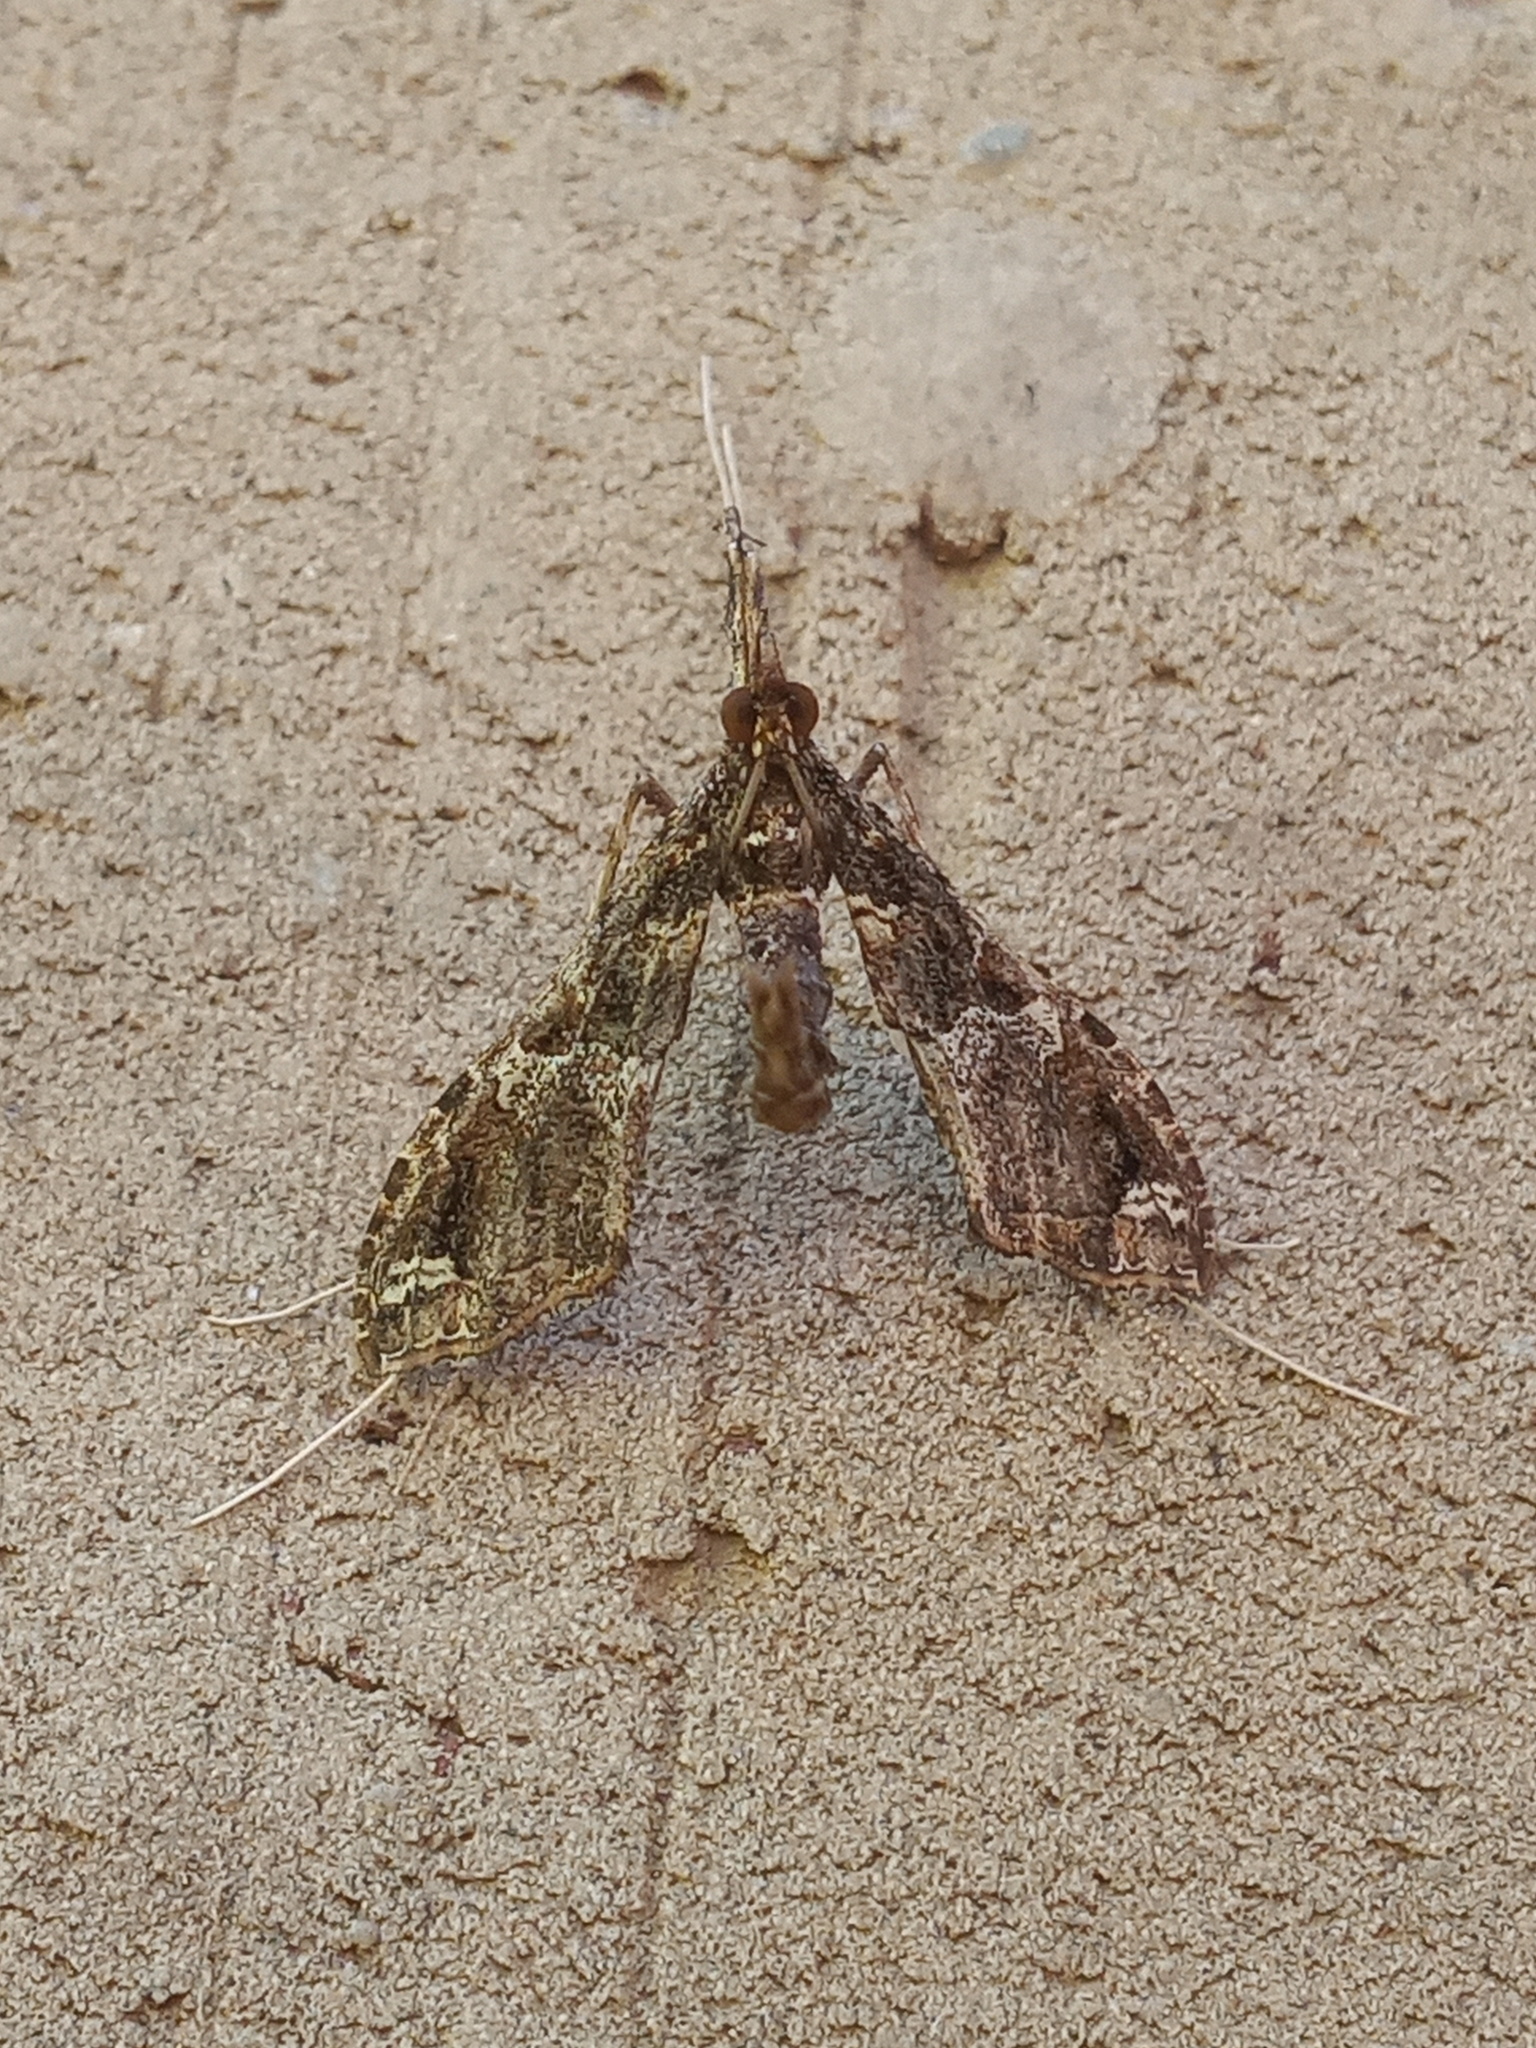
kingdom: Animalia
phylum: Arthropoda
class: Insecta
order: Lepidoptera
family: Crambidae
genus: Lineodes
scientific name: Lineodes triangulalis
